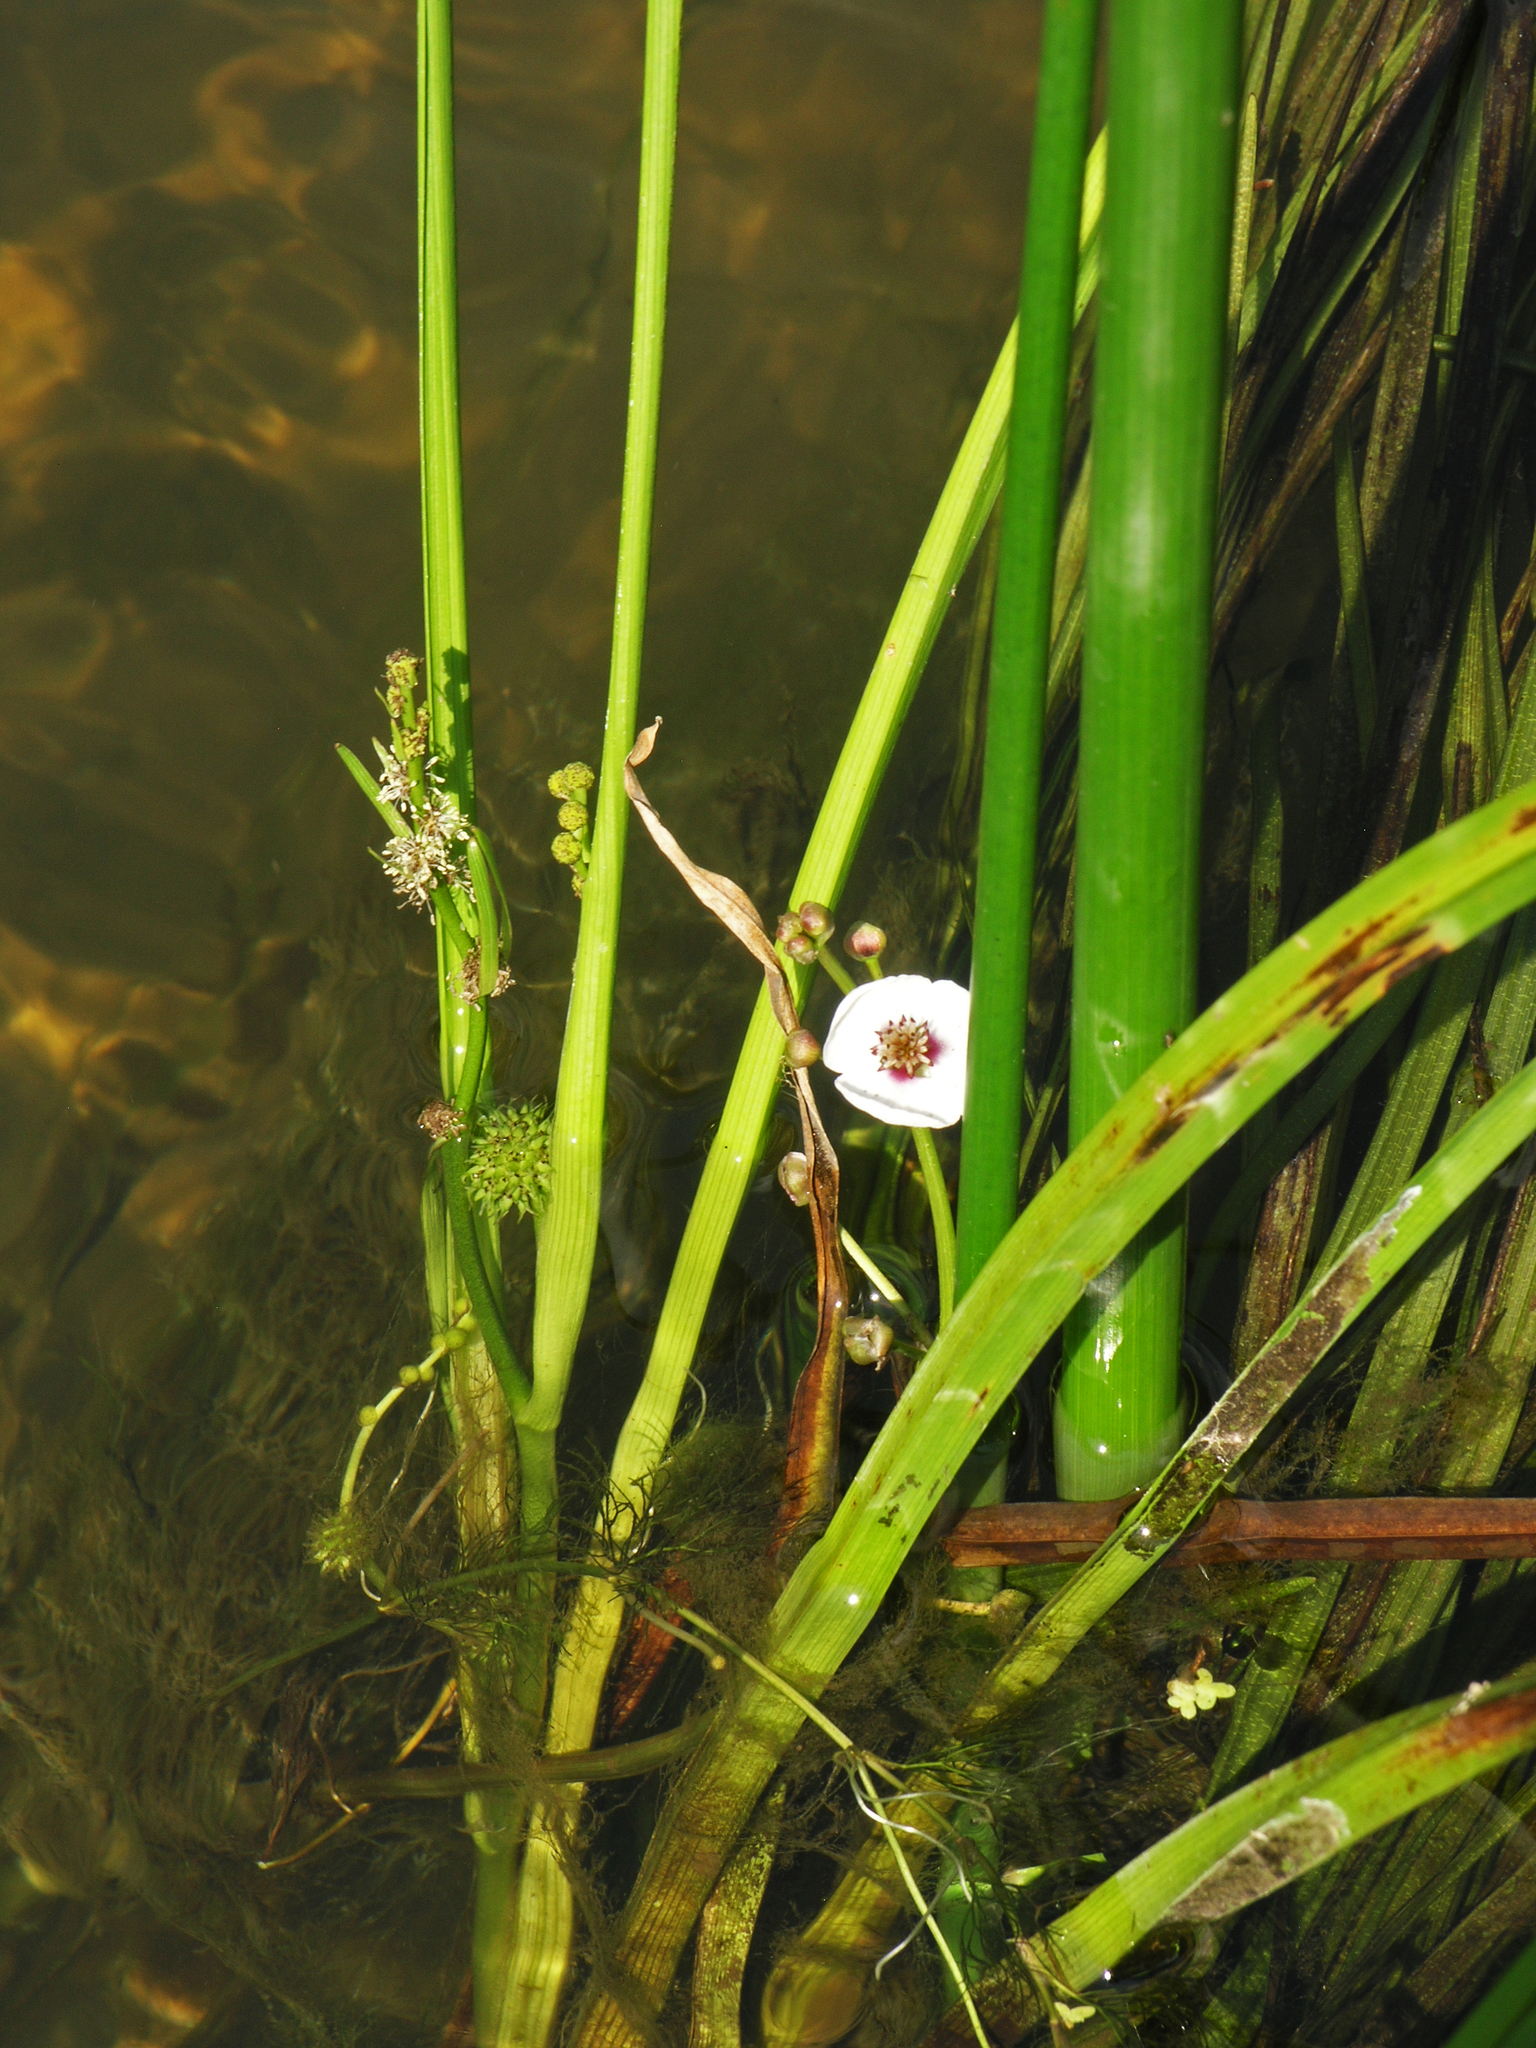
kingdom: Plantae
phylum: Tracheophyta
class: Liliopsida
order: Alismatales
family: Alismataceae
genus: Sagittaria
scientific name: Sagittaria sagittifolia
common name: Arrowhead
